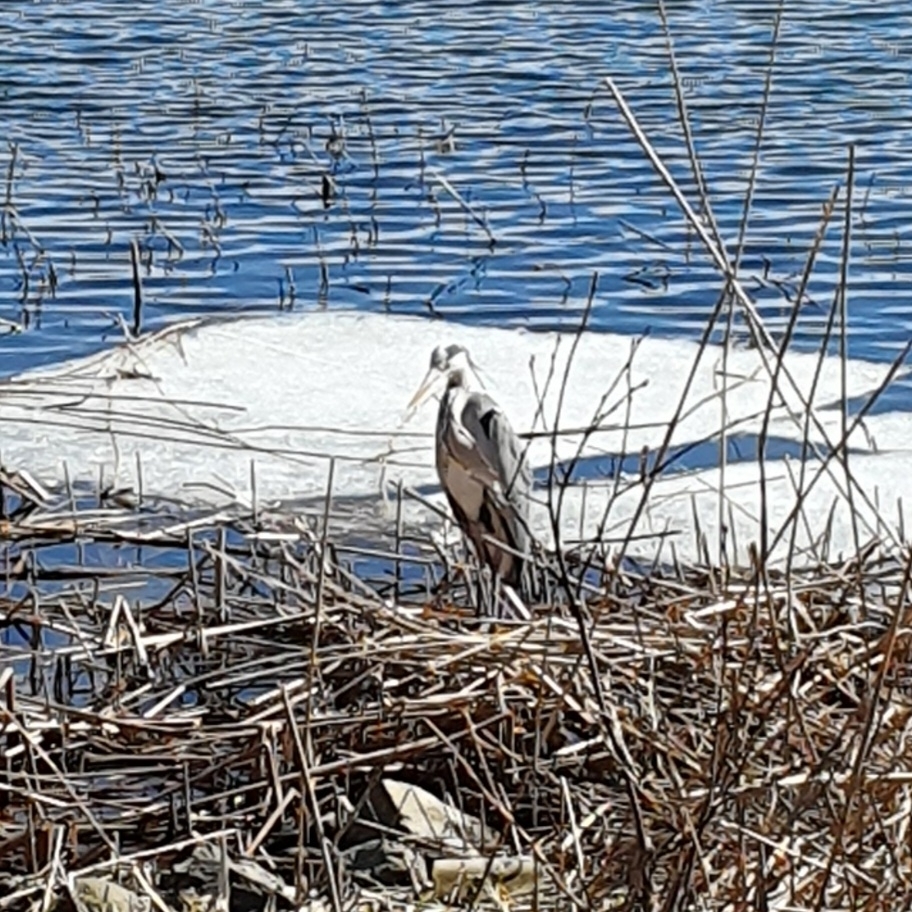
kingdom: Animalia
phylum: Chordata
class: Aves
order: Pelecaniformes
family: Ardeidae
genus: Ardea
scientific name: Ardea cinerea
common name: Grey heron
